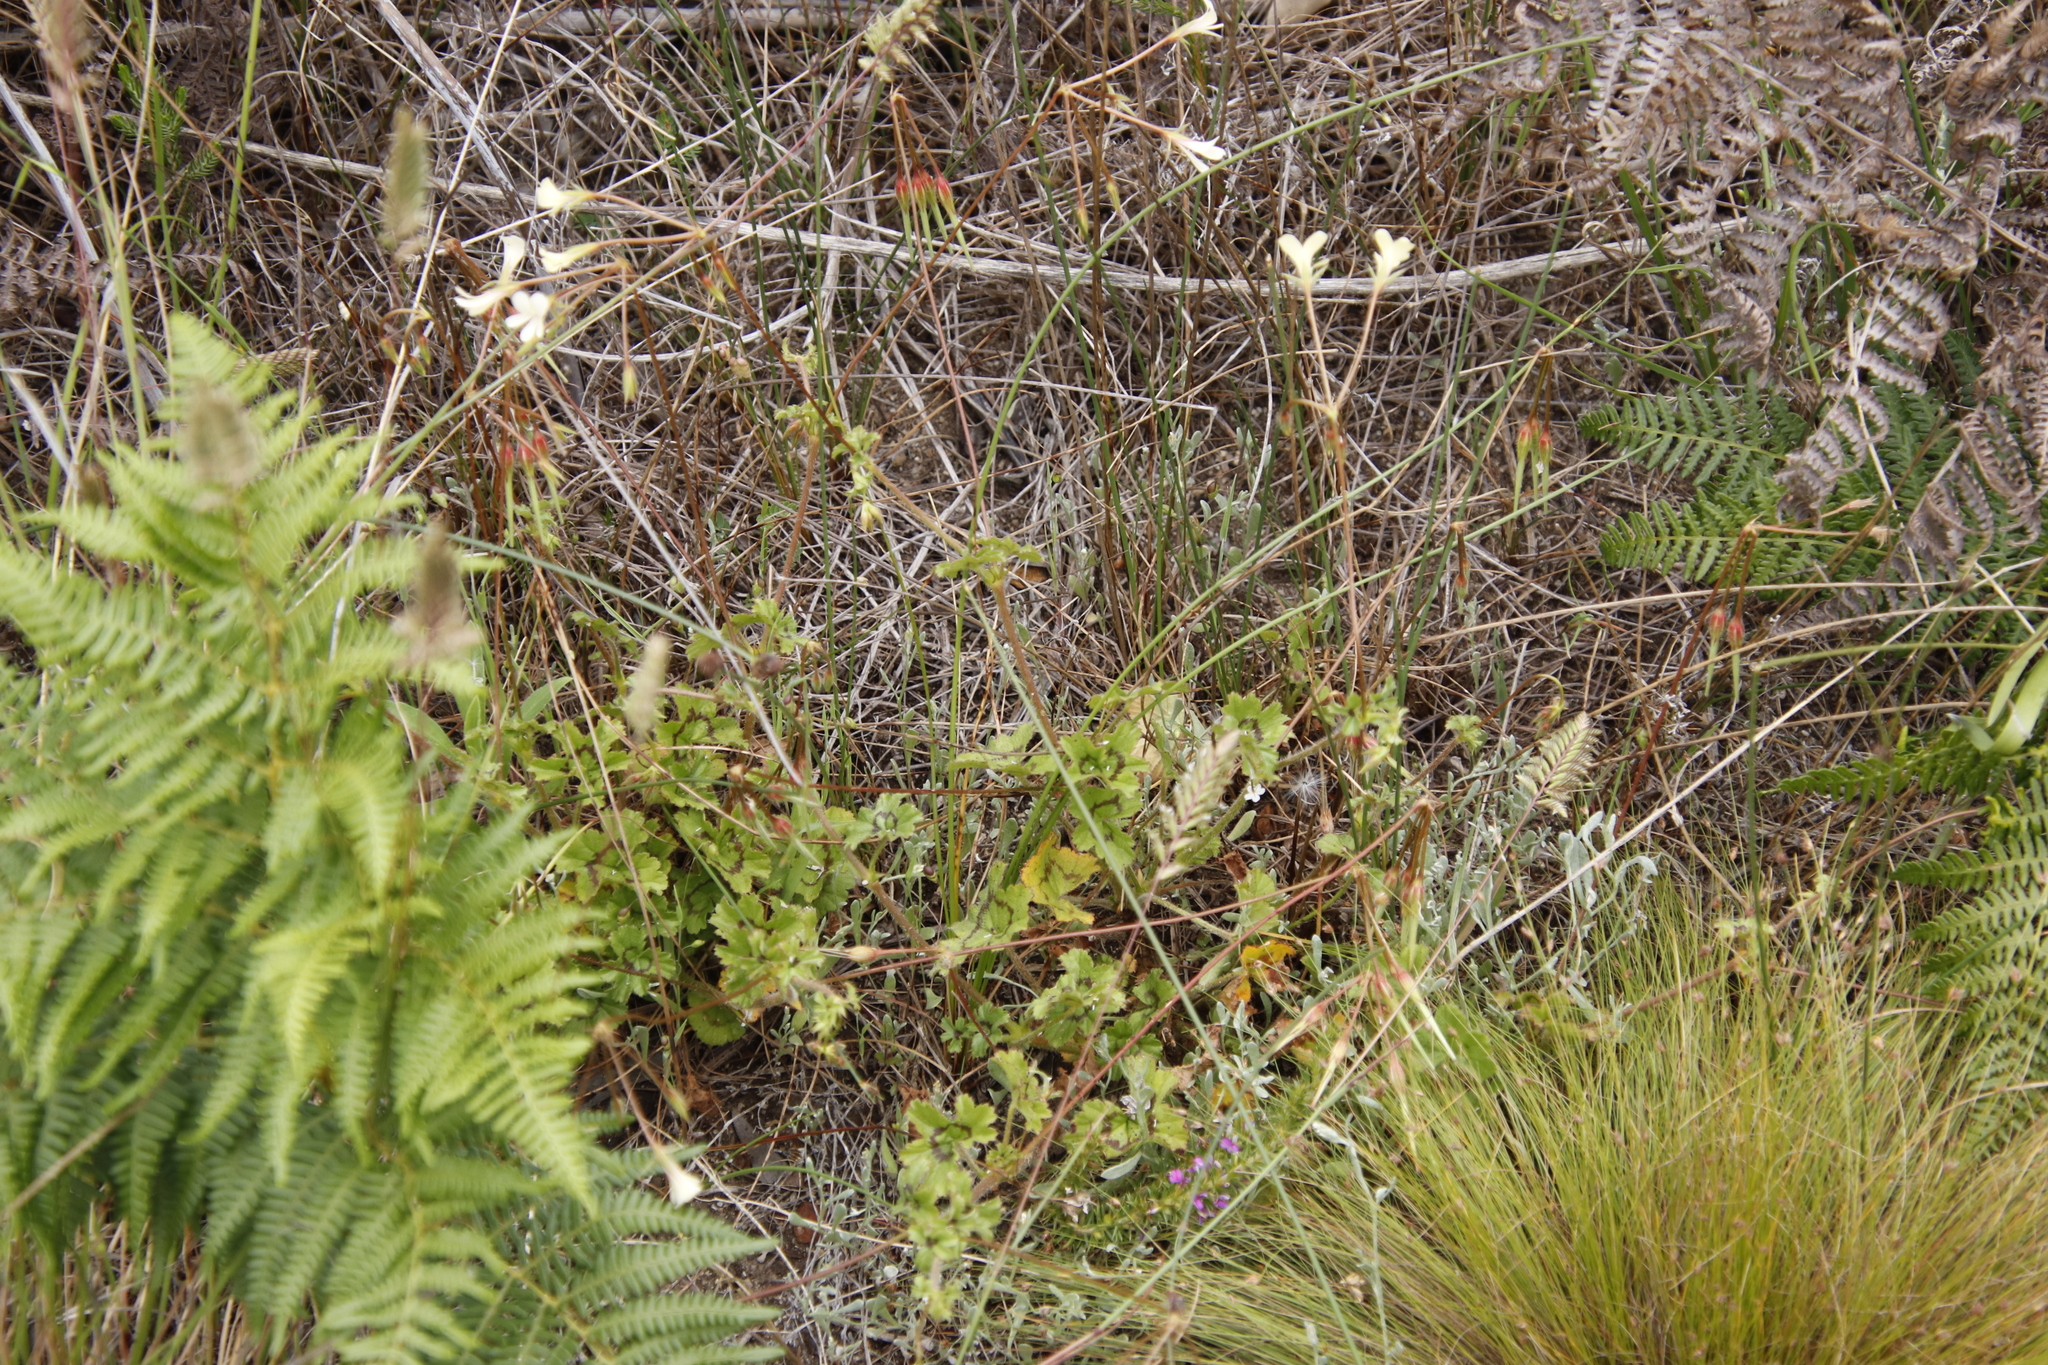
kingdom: Plantae
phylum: Tracheophyta
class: Magnoliopsida
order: Geraniales
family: Geraniaceae
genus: Pelargonium
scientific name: Pelargonium elongatum
